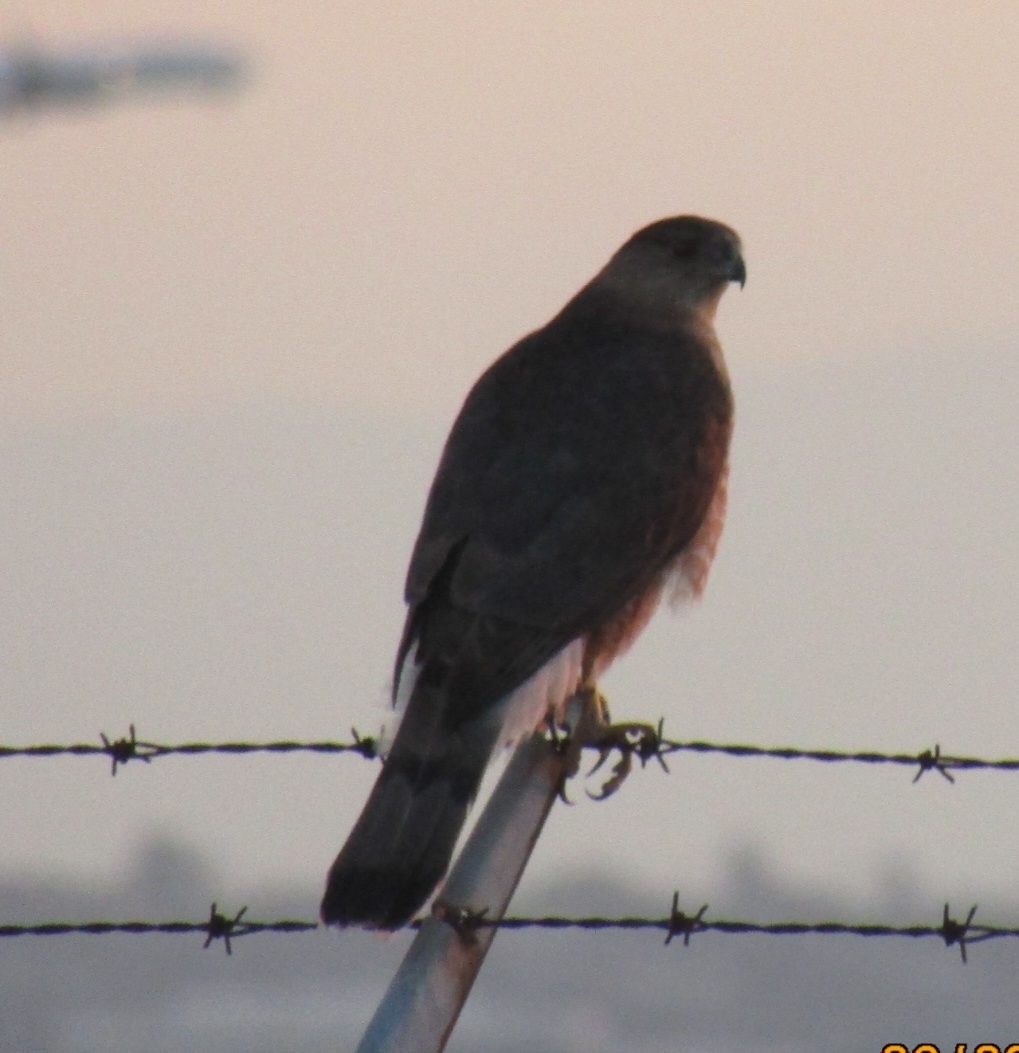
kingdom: Animalia
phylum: Chordata
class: Aves
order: Accipitriformes
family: Accipitridae
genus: Accipiter
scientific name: Accipiter cooperii
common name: Cooper's hawk
